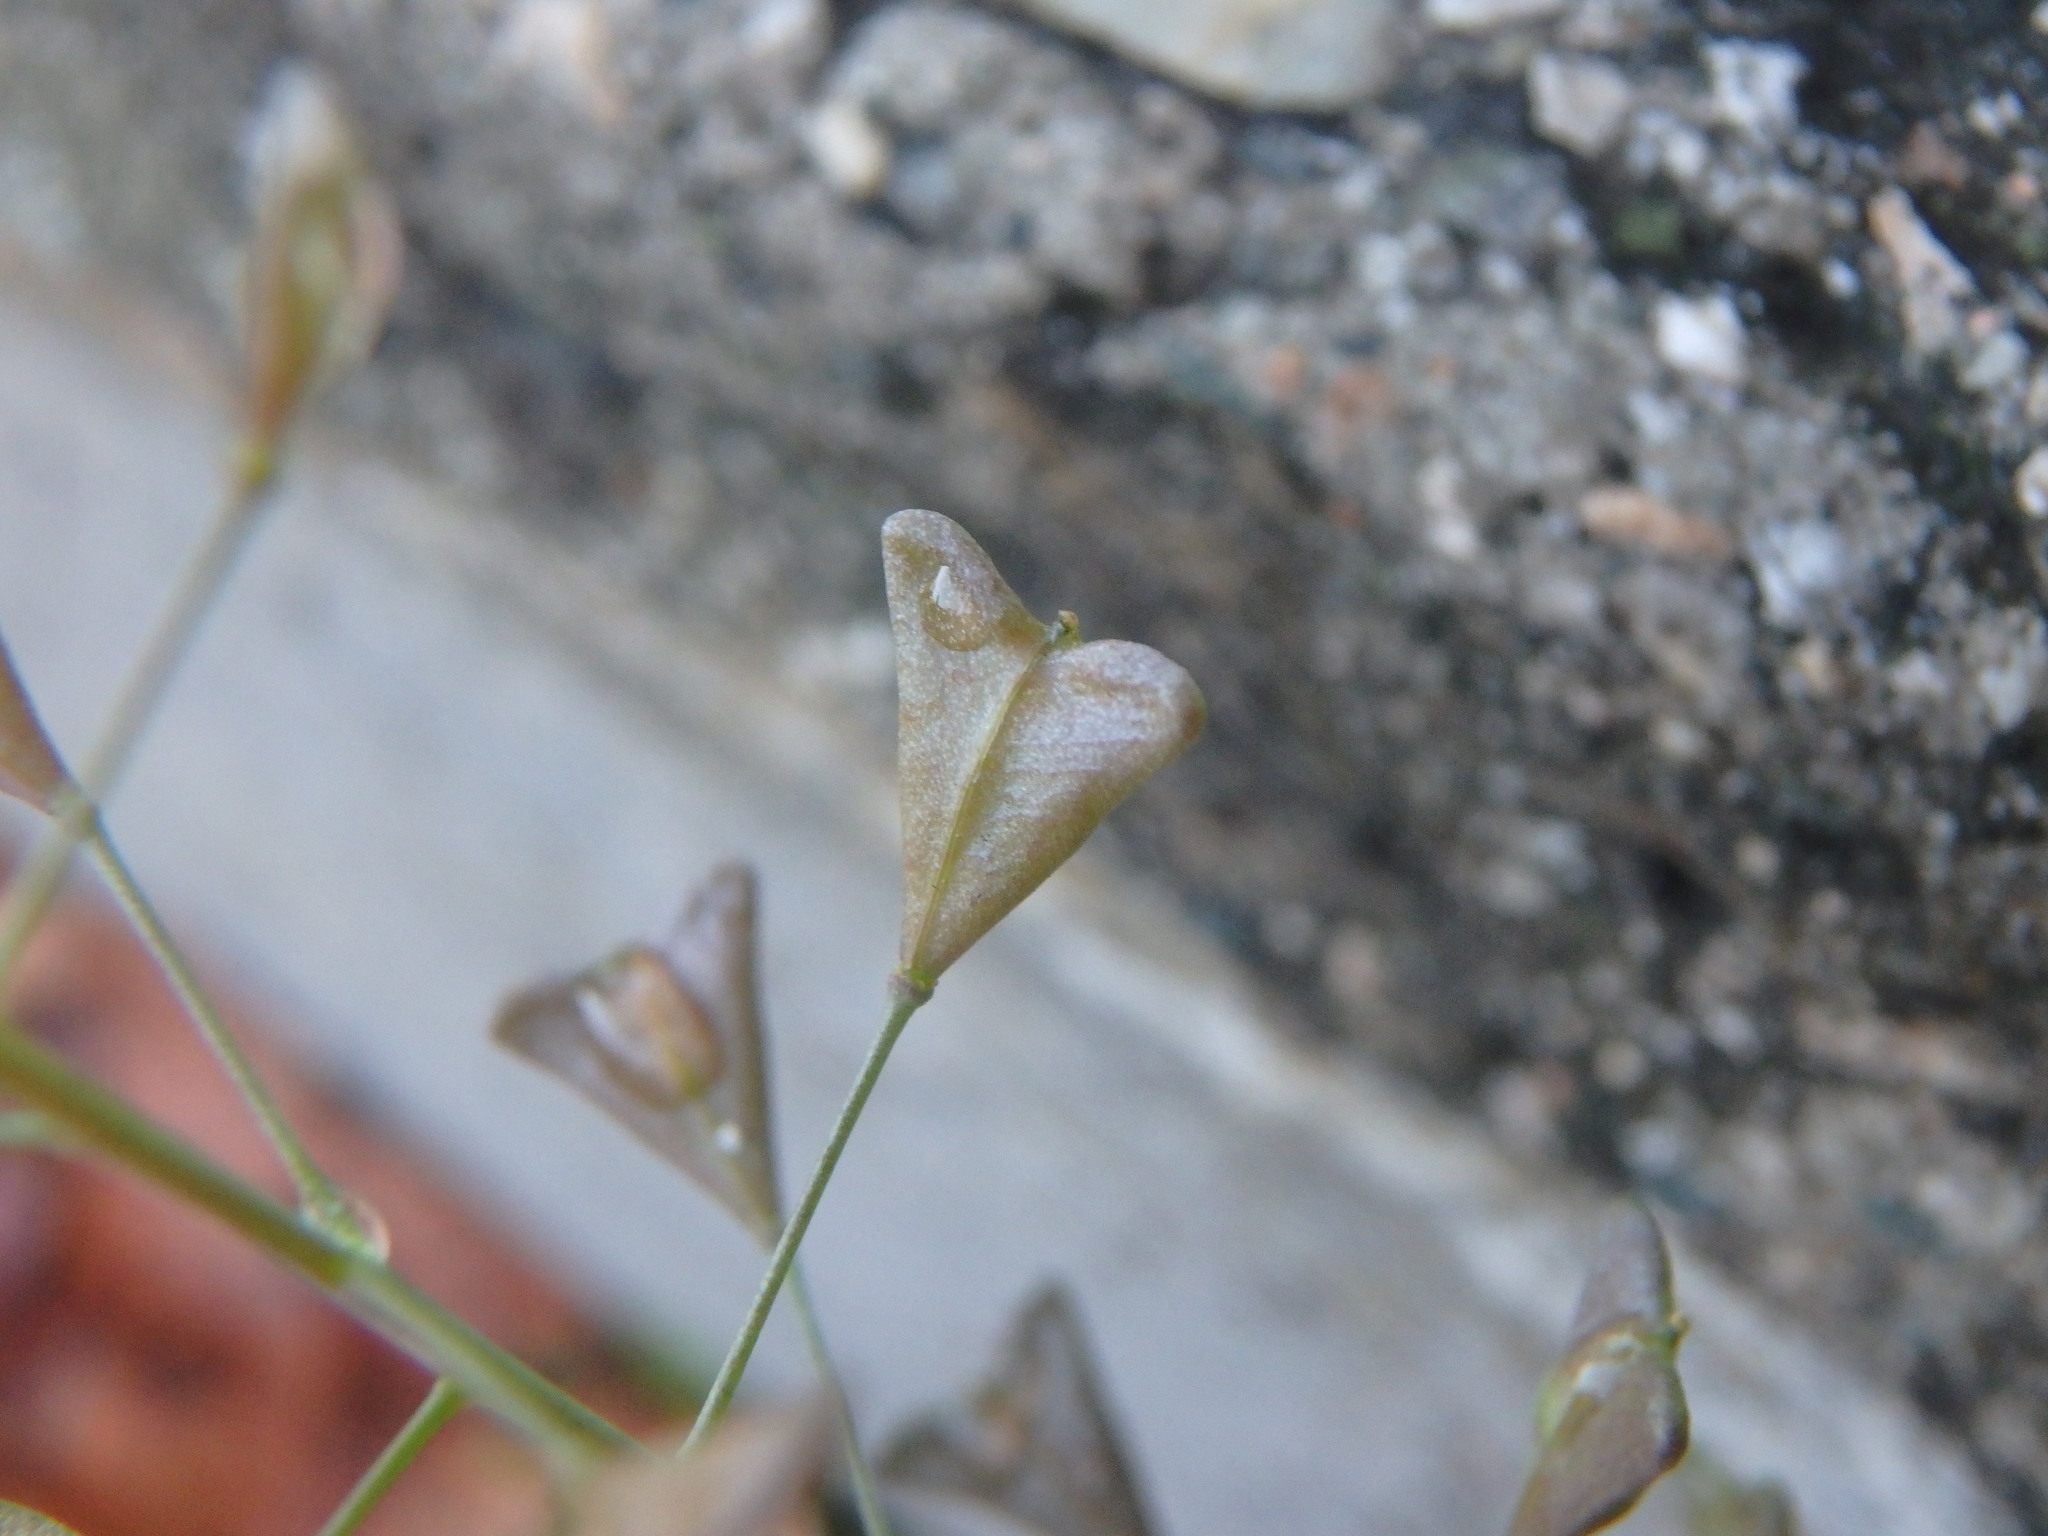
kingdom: Plantae
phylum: Tracheophyta
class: Magnoliopsida
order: Brassicales
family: Brassicaceae
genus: Capsella
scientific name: Capsella bursa-pastoris
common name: Shepherd's purse
